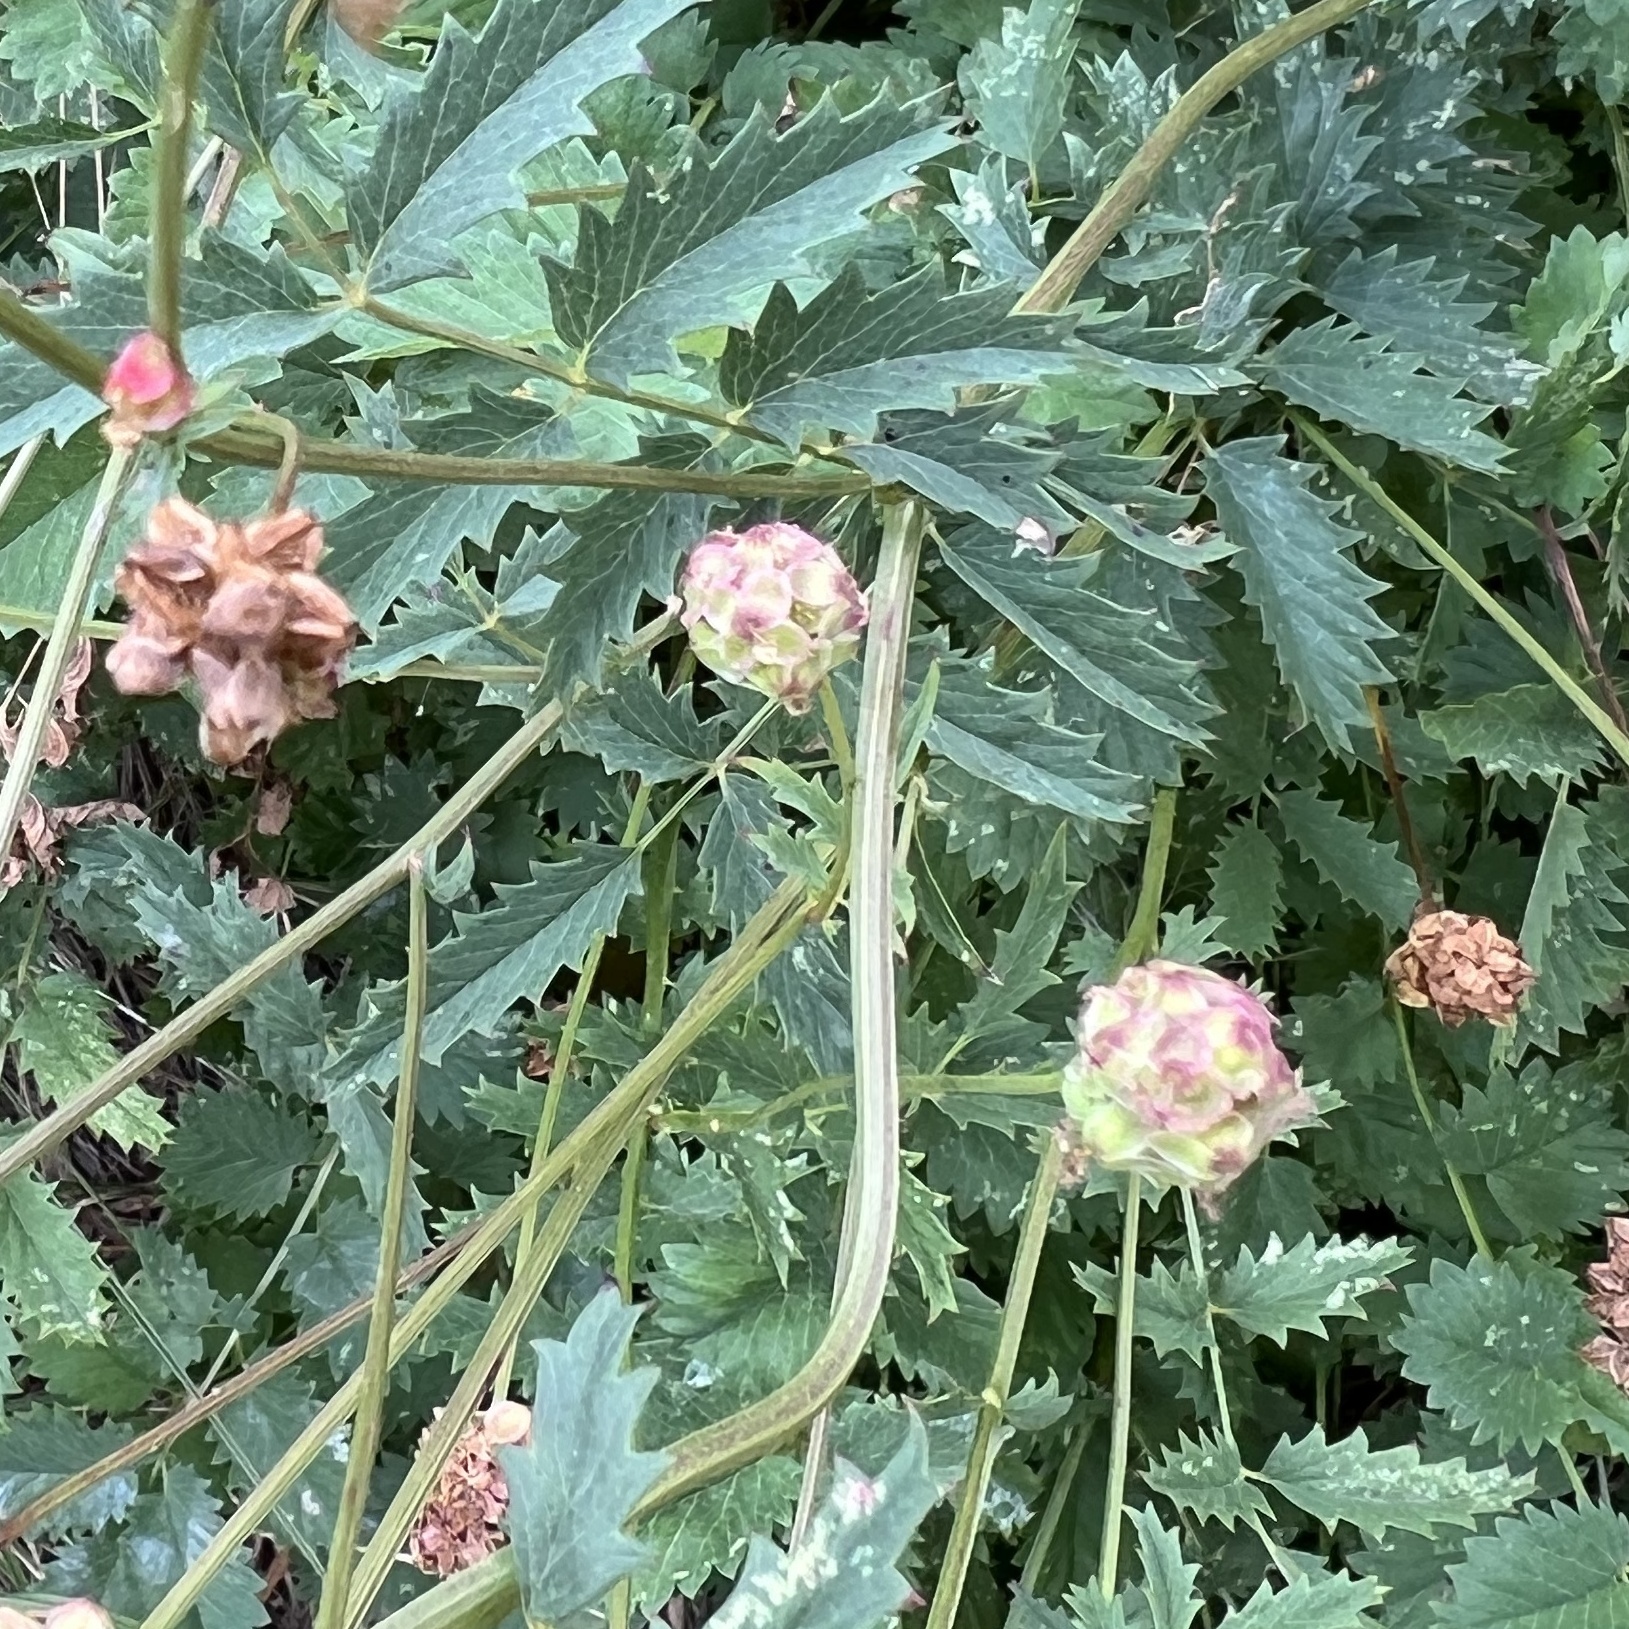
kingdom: Plantae
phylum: Tracheophyta
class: Magnoliopsida
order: Rosales
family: Rosaceae
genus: Poterium
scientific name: Poterium sanguisorba
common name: Salad burnet
